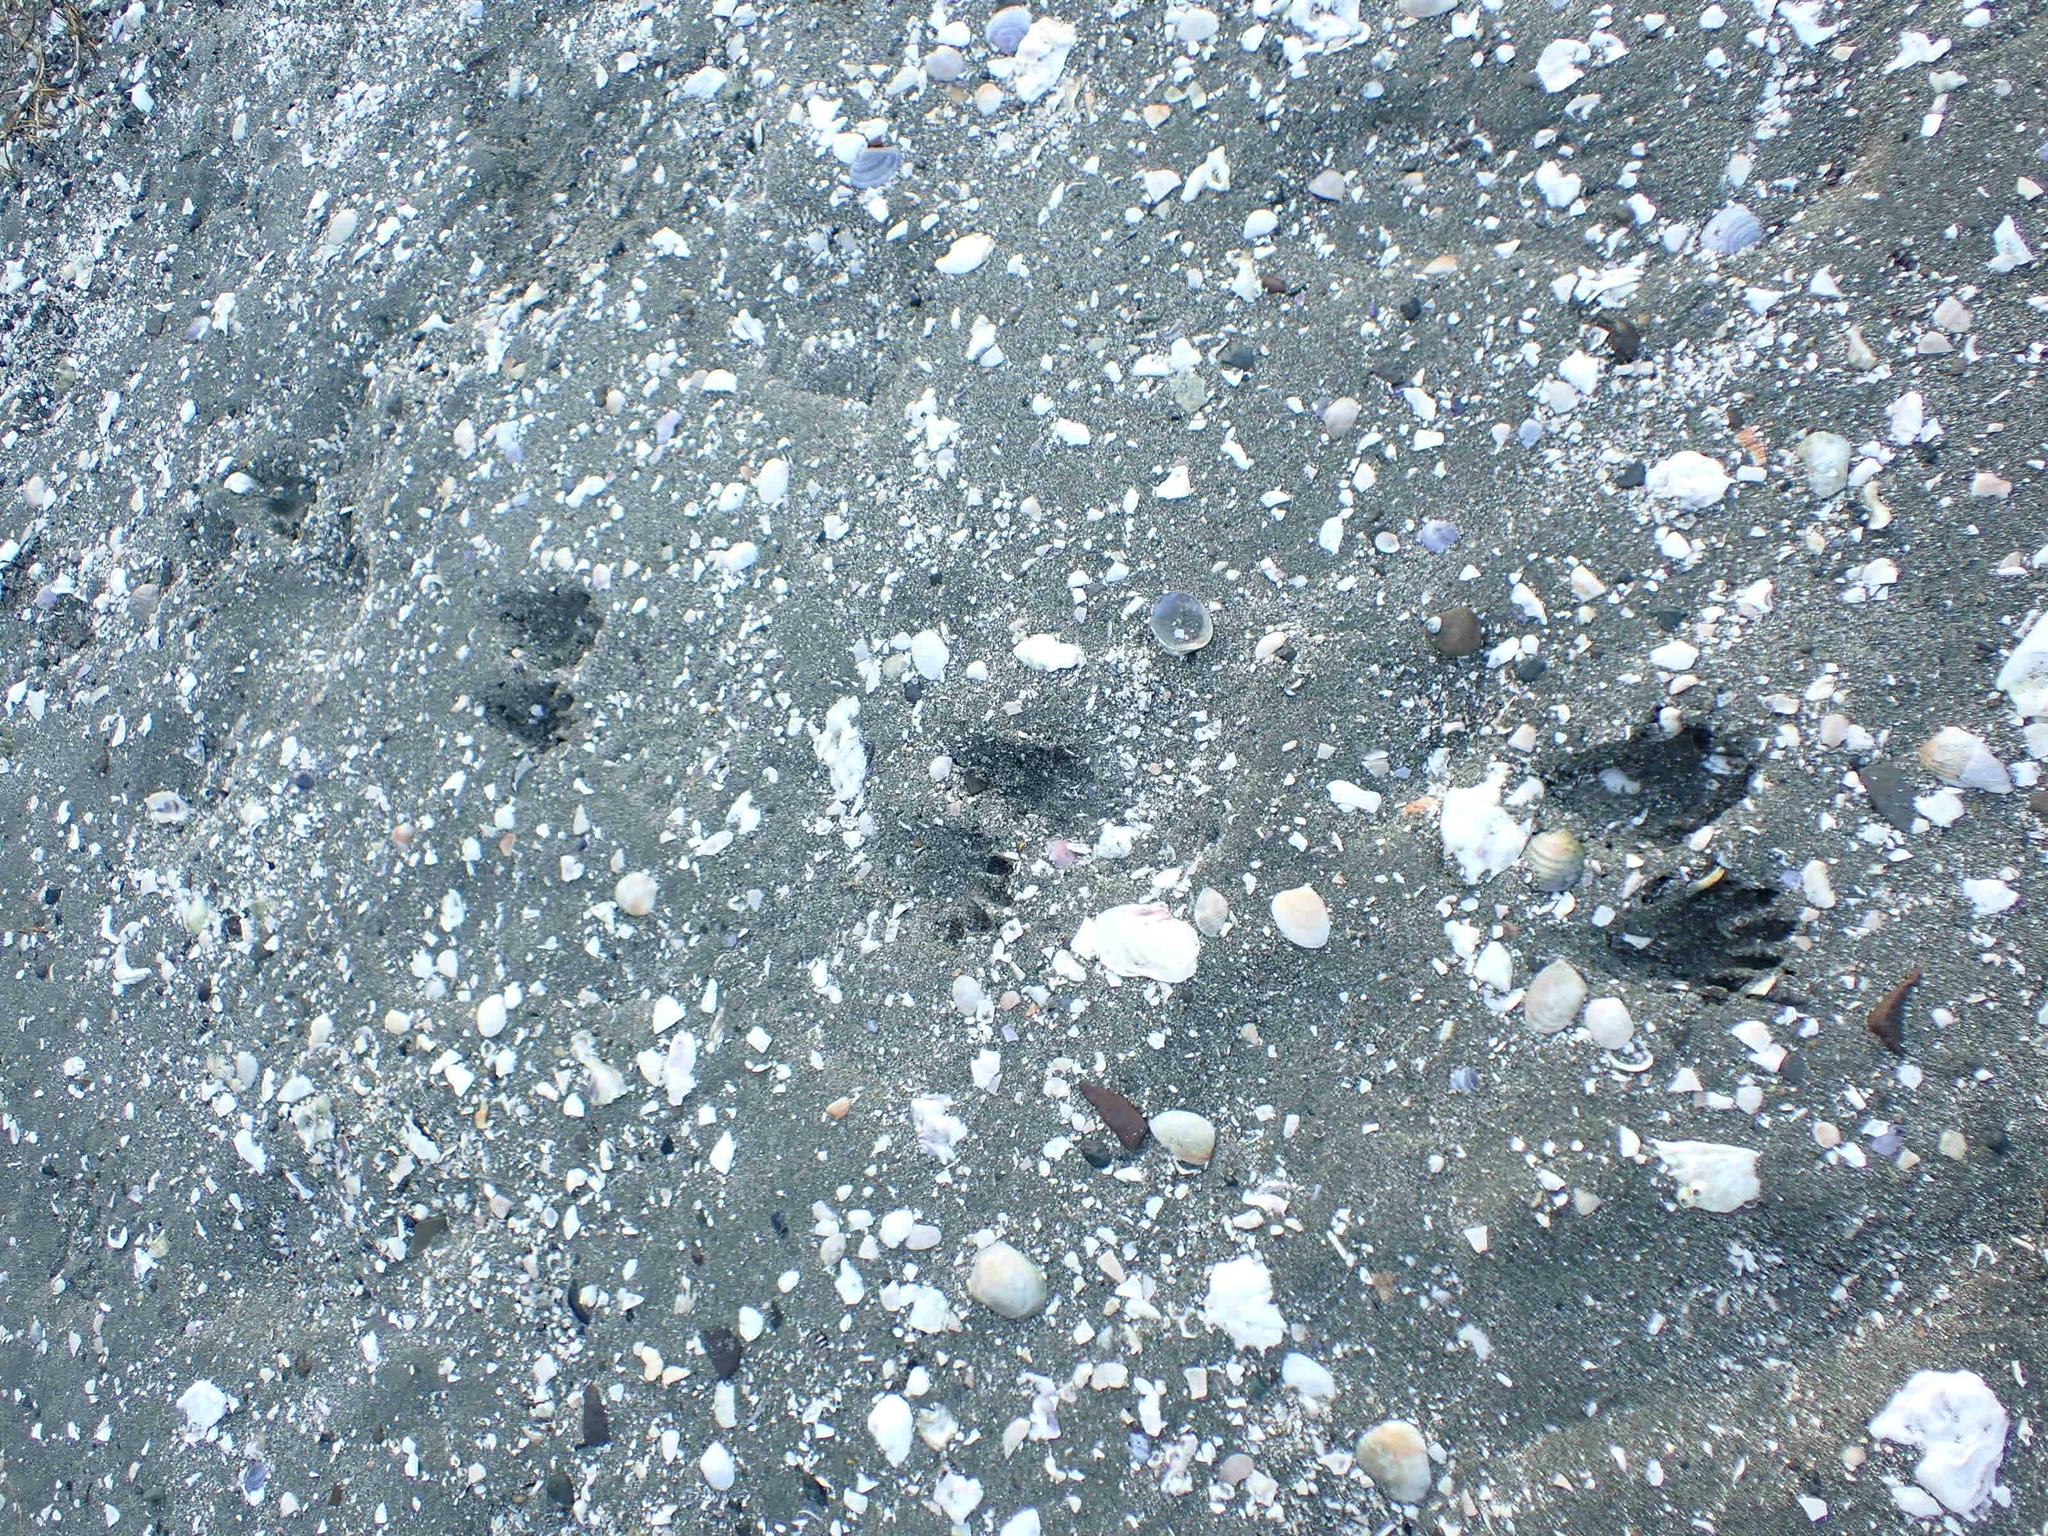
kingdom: Animalia
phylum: Chordata
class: Mammalia
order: Carnivora
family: Procyonidae
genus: Procyon
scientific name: Procyon lotor
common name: Raccoon
